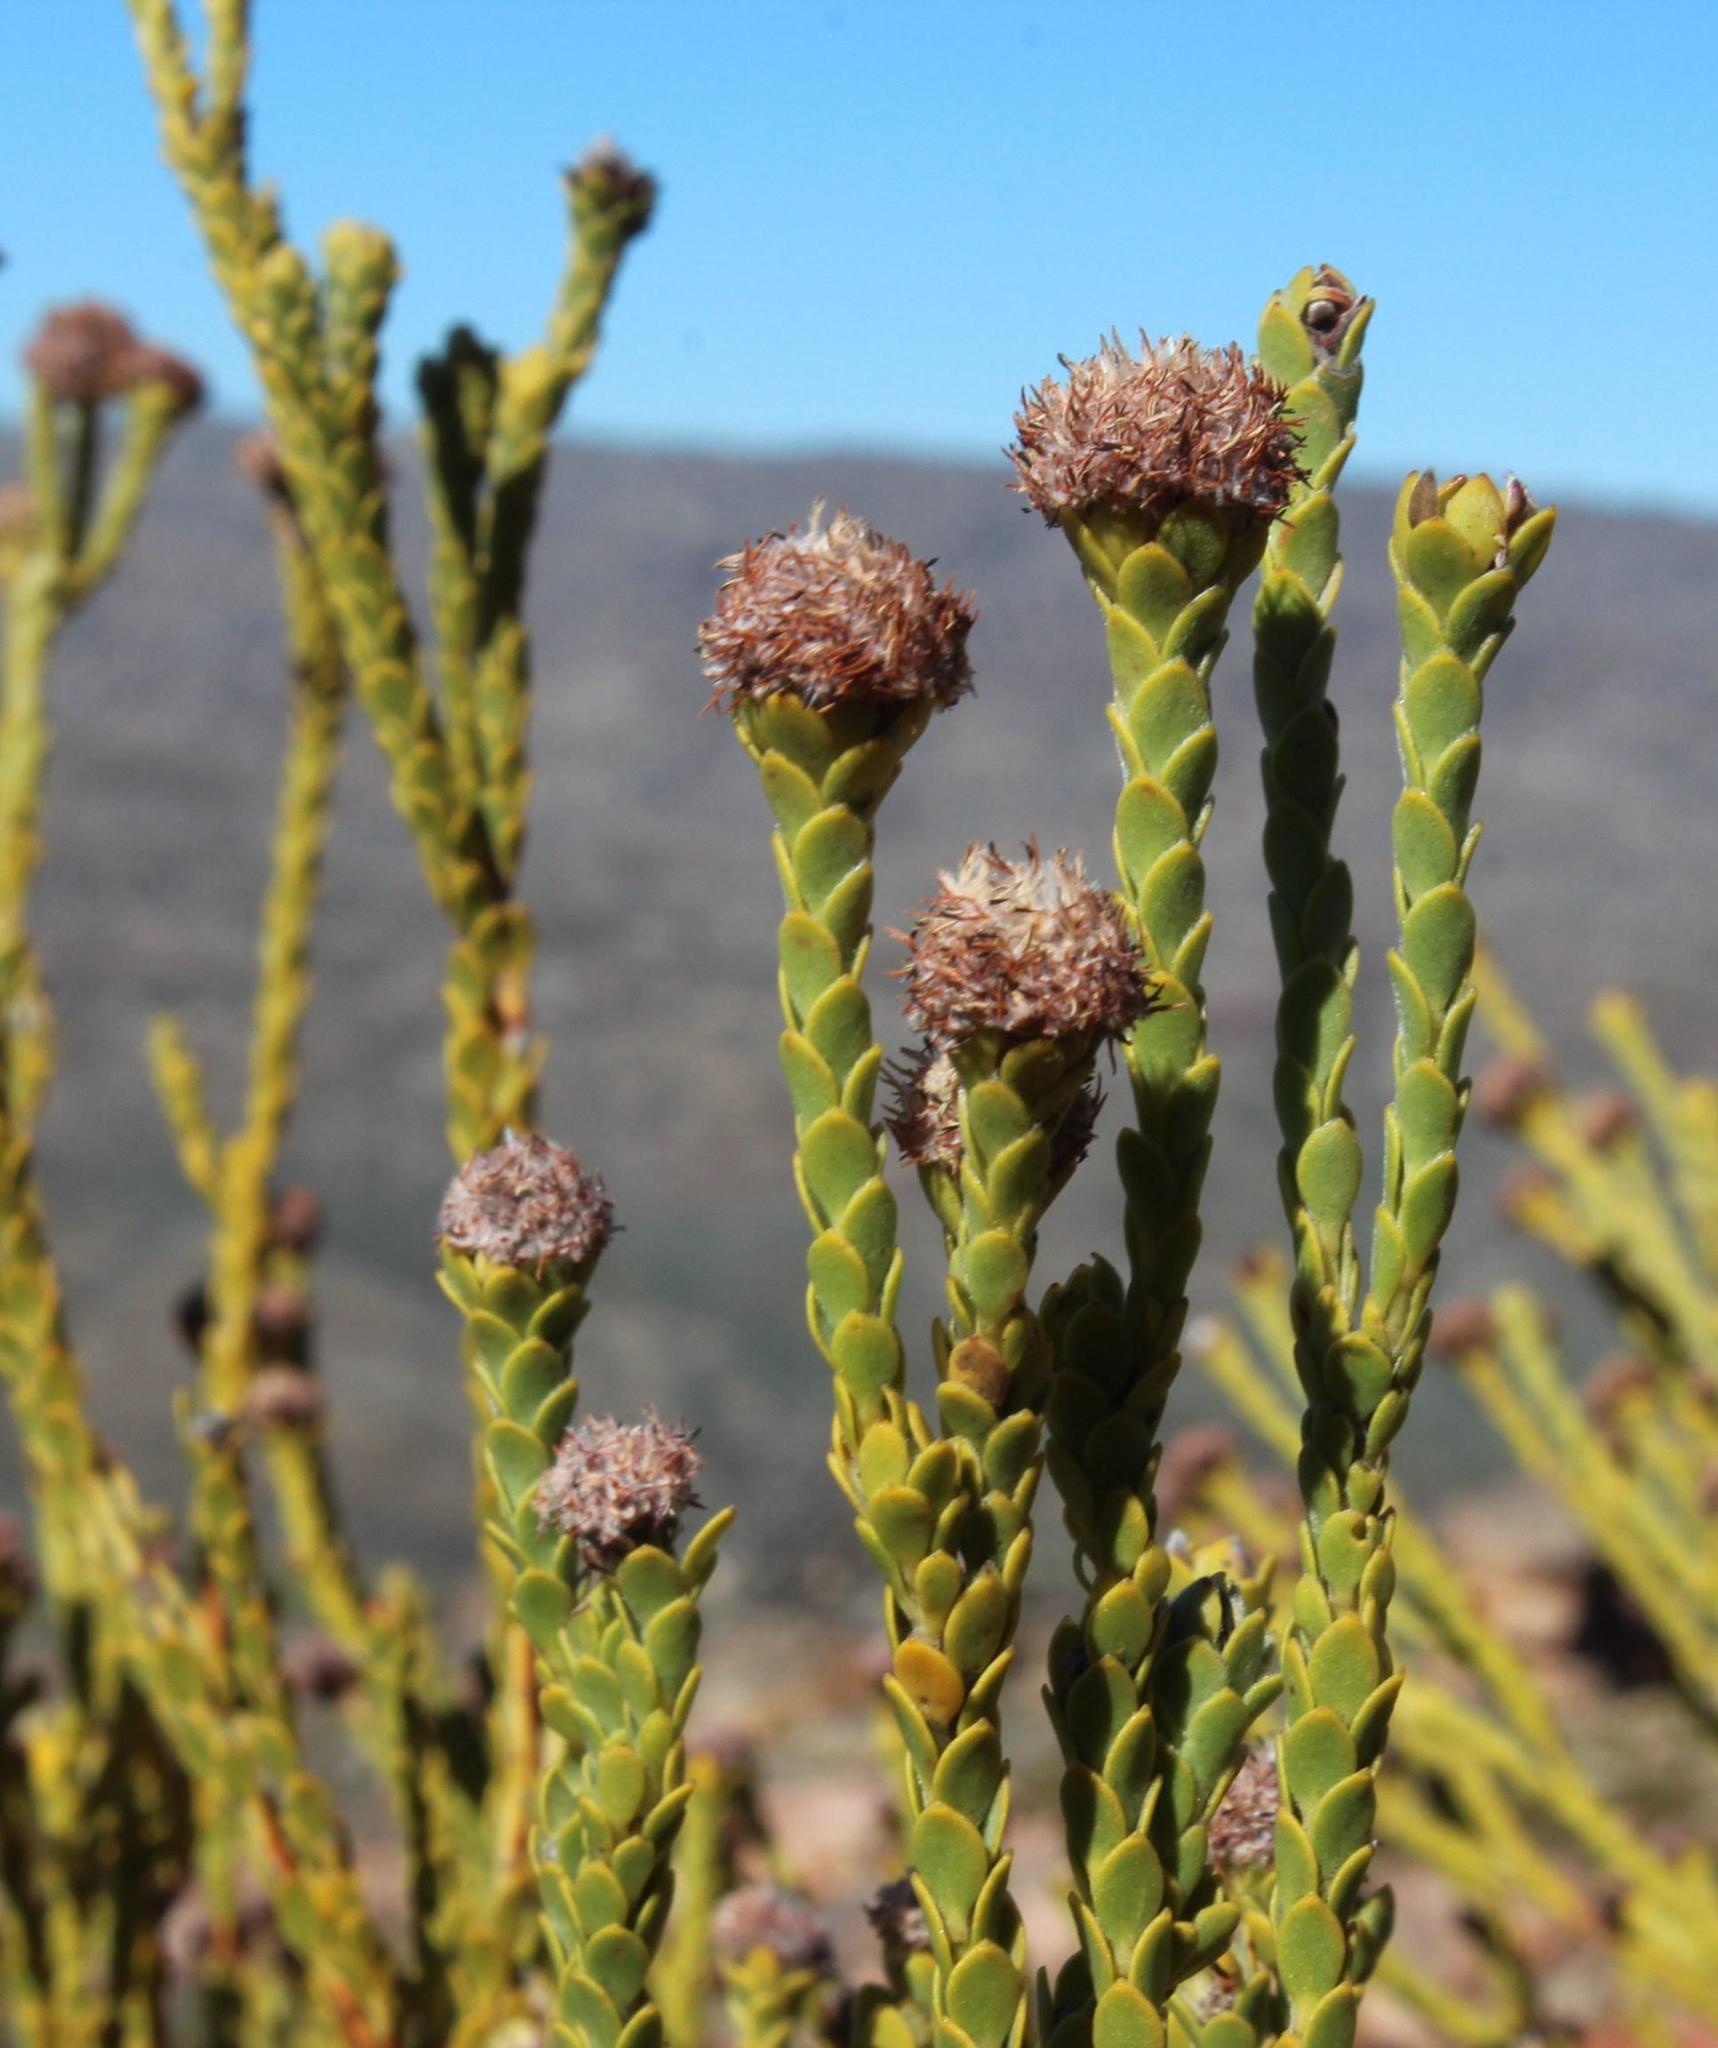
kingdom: Plantae
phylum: Tracheophyta
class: Magnoliopsida
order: Proteales
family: Proteaceae
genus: Leucadendron
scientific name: Leucadendron dubium
